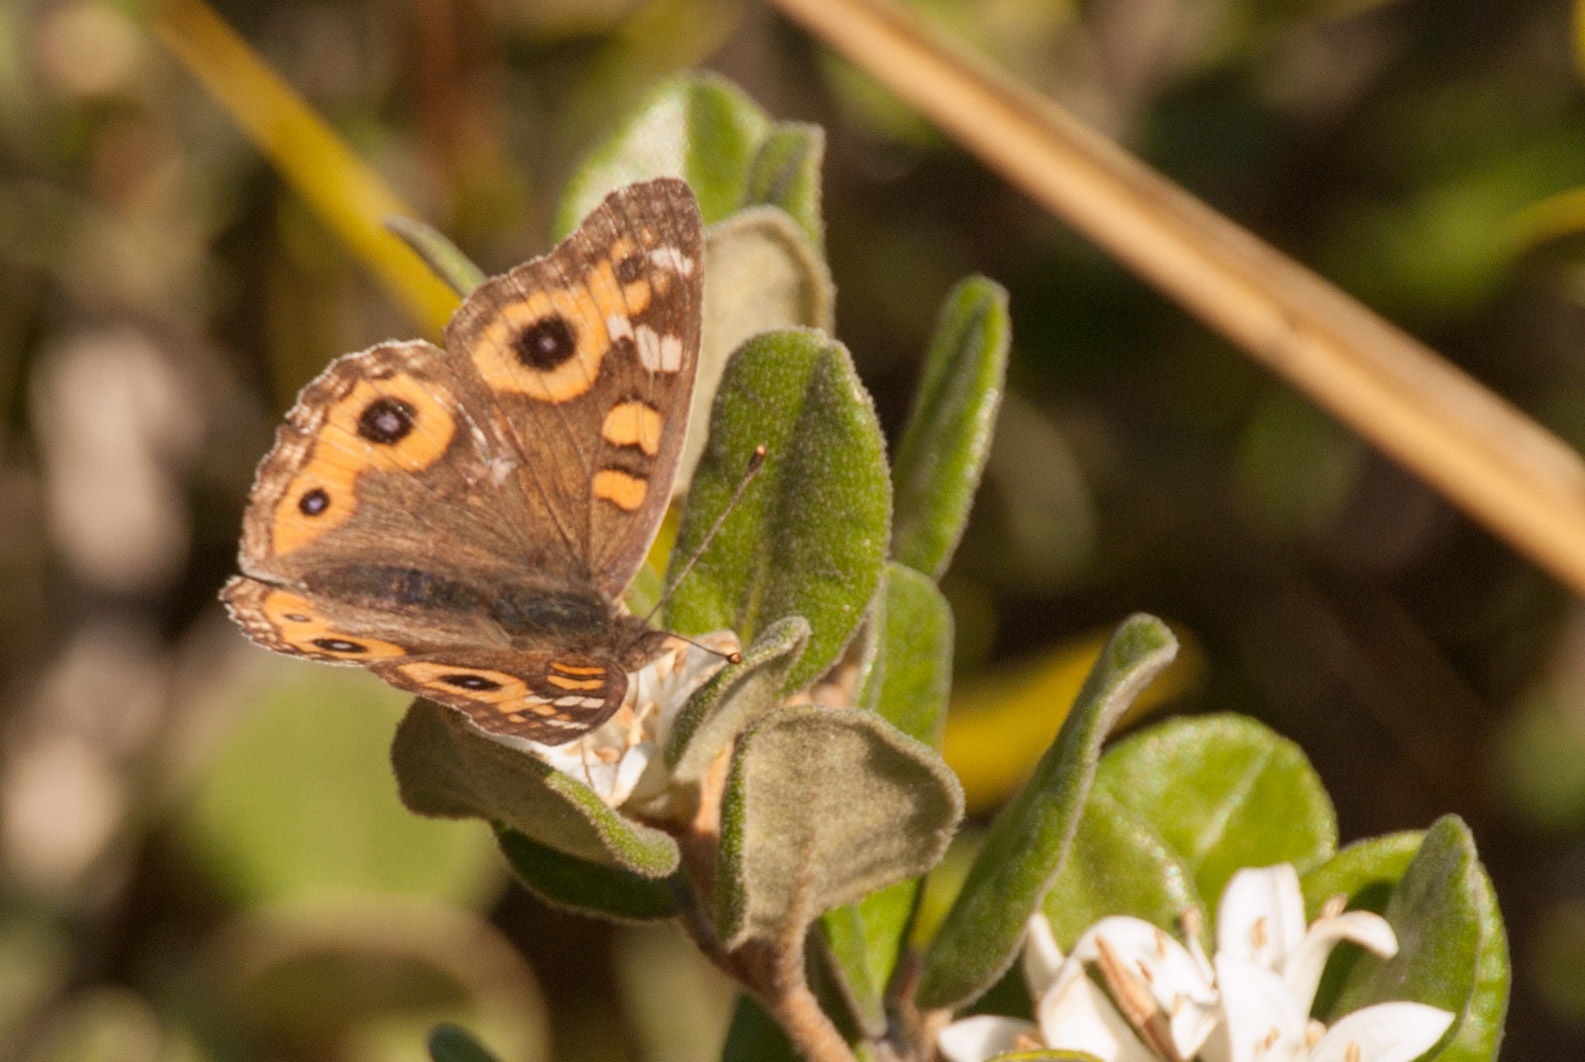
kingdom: Animalia
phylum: Arthropoda
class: Insecta
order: Lepidoptera
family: Nymphalidae
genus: Junonia
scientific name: Junonia villida
